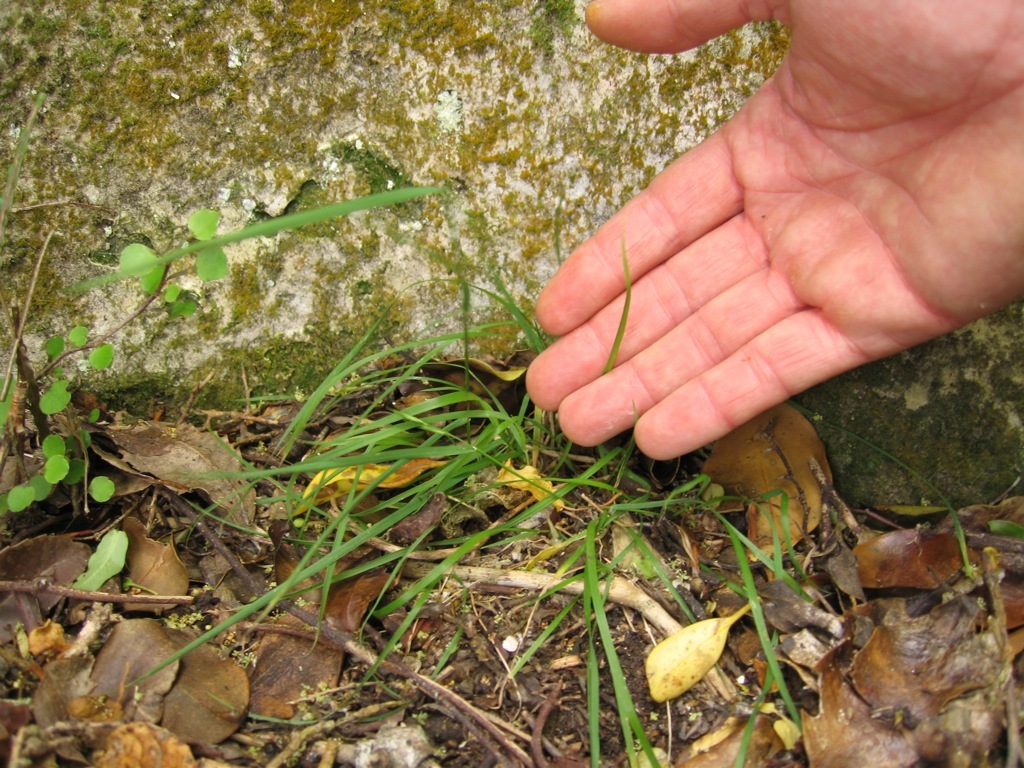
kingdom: Plantae
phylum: Tracheophyta
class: Liliopsida
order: Poales
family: Poaceae
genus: Australopyrum
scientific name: Australopyrum calcis
